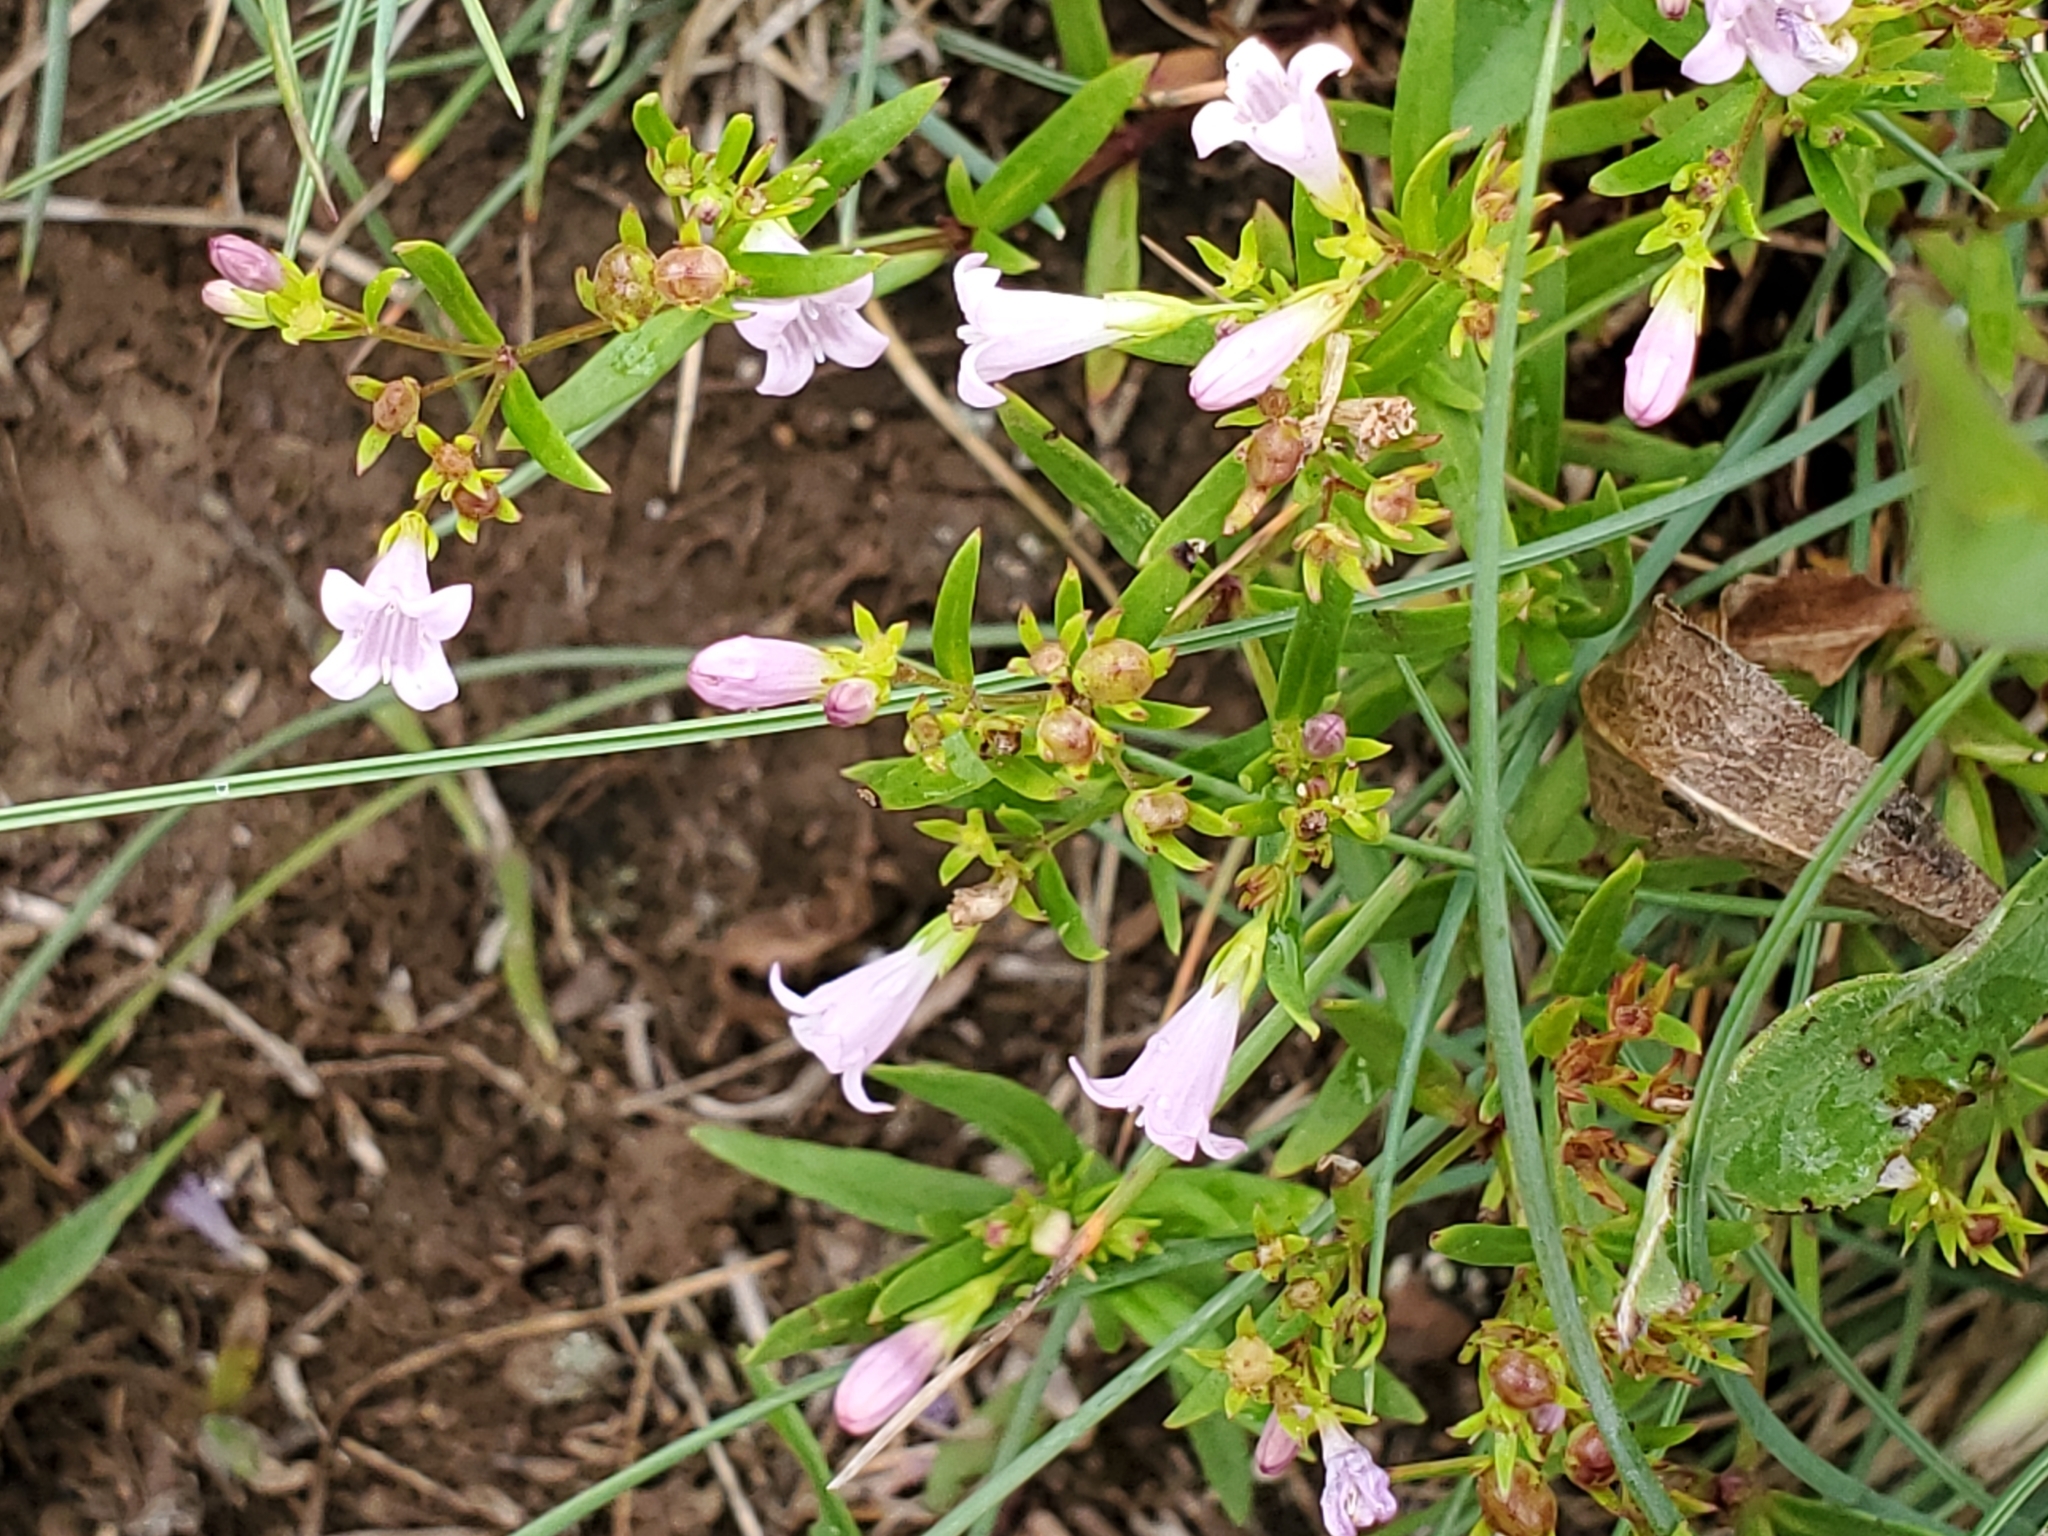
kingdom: Plantae
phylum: Tracheophyta
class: Magnoliopsida
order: Gentianales
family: Rubiaceae
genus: Houstonia
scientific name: Houstonia longifolia
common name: Long-leaved bluets
